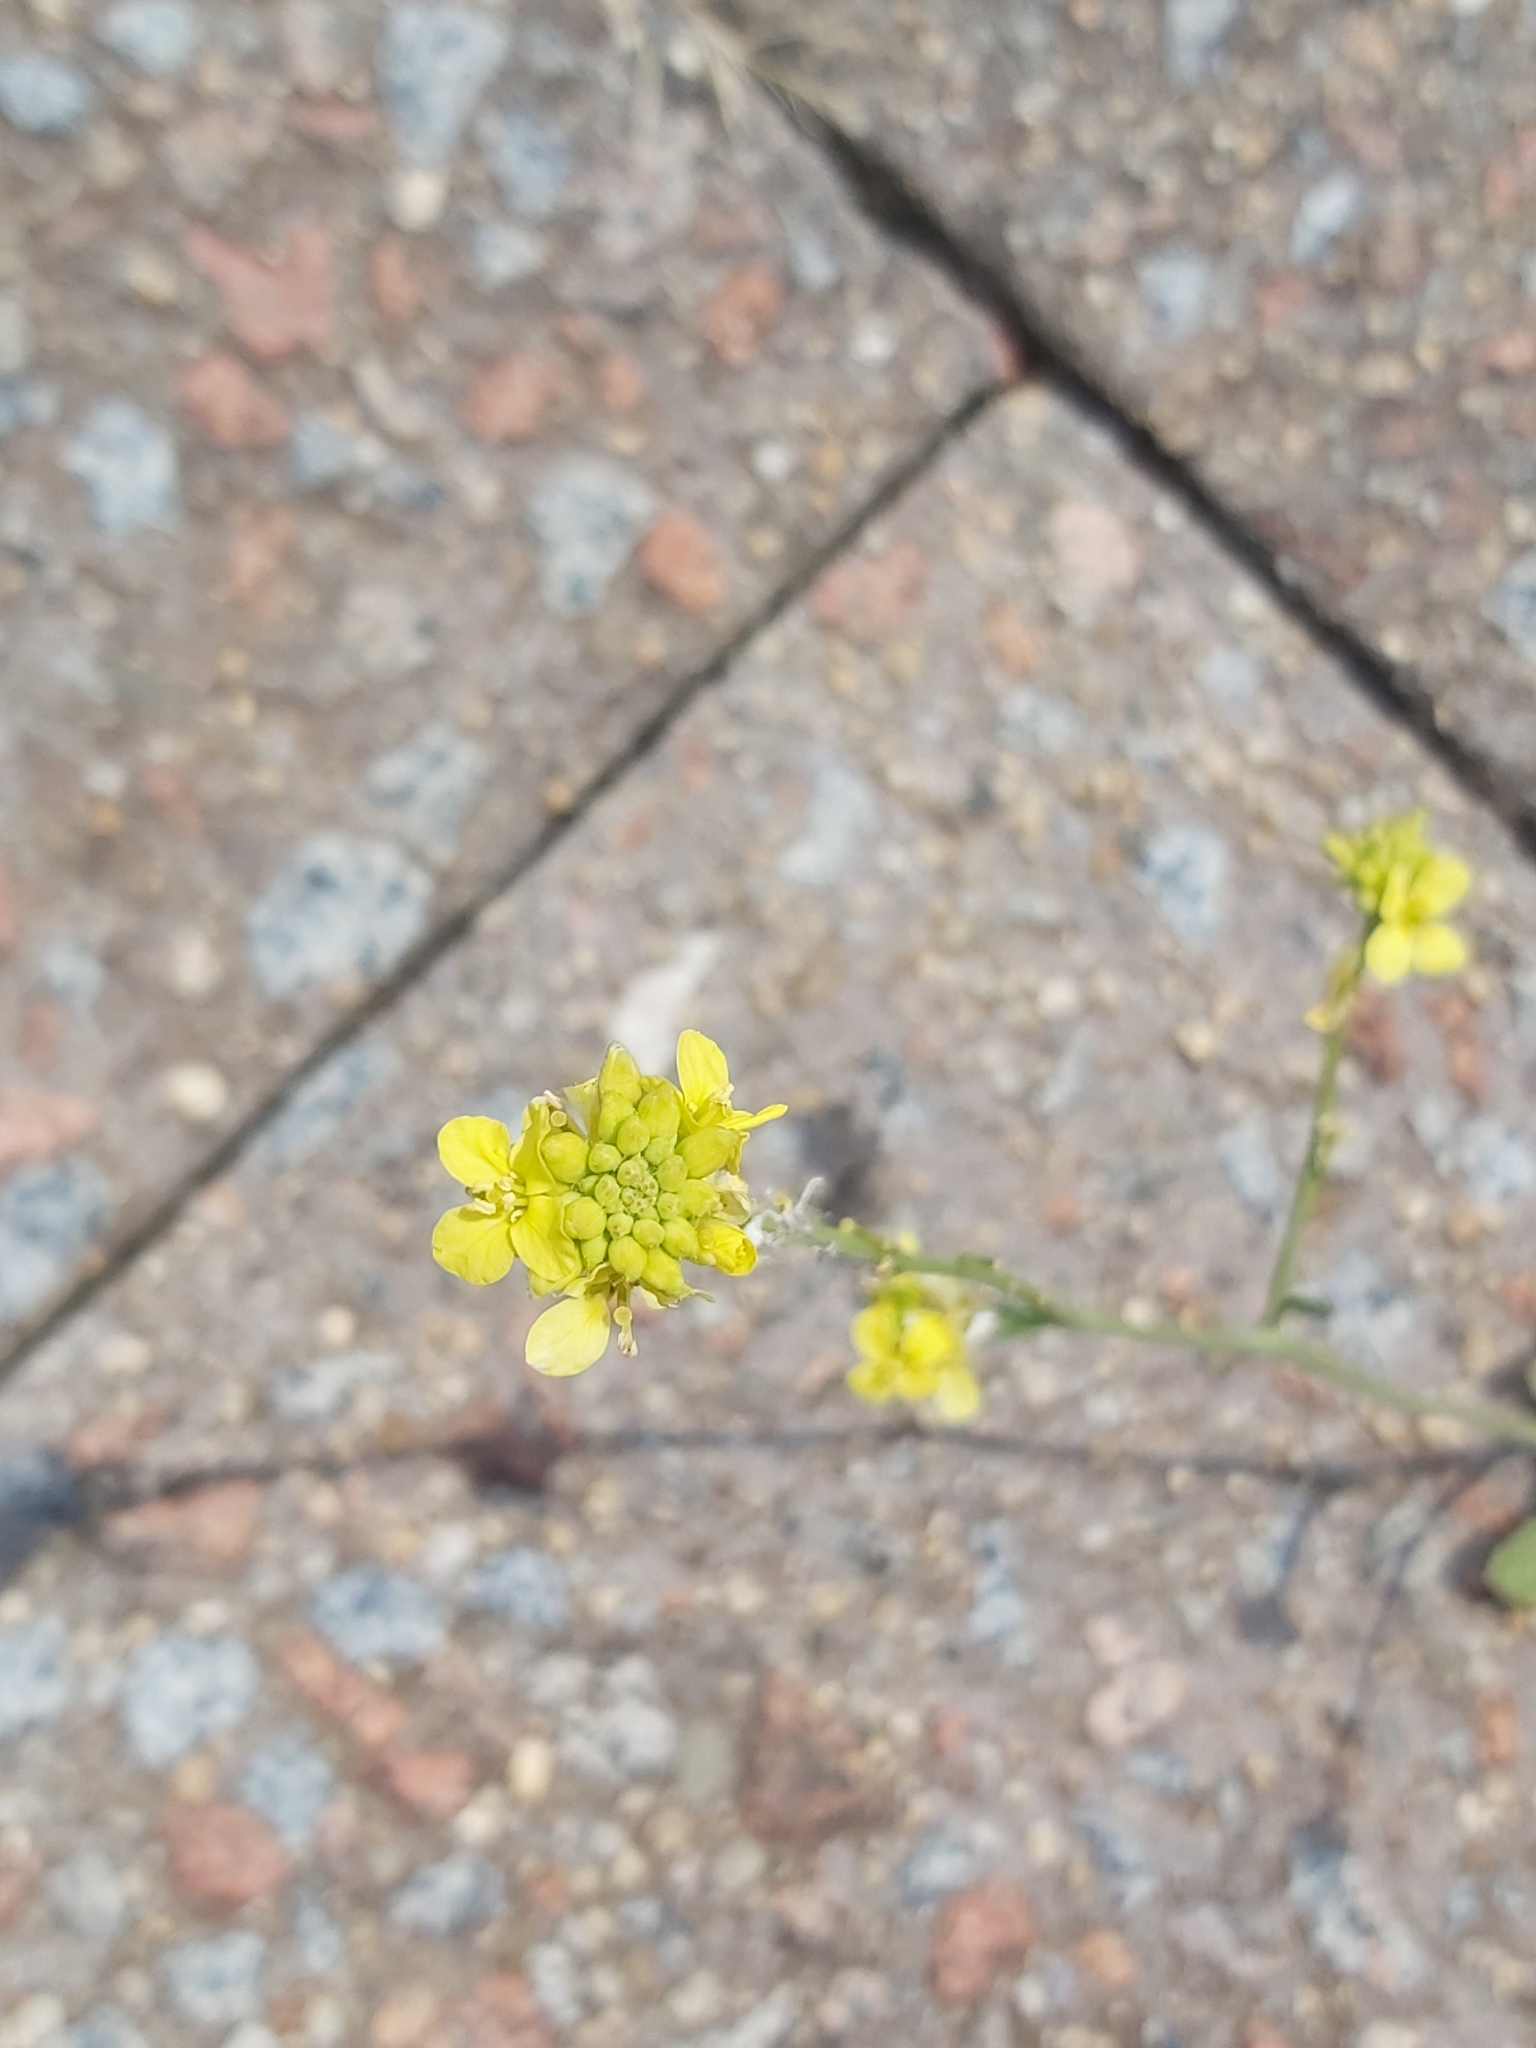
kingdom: Plantae
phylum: Tracheophyta
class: Magnoliopsida
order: Brassicales
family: Brassicaceae
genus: Hirschfeldia
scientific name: Hirschfeldia incana
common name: Hoary mustard
